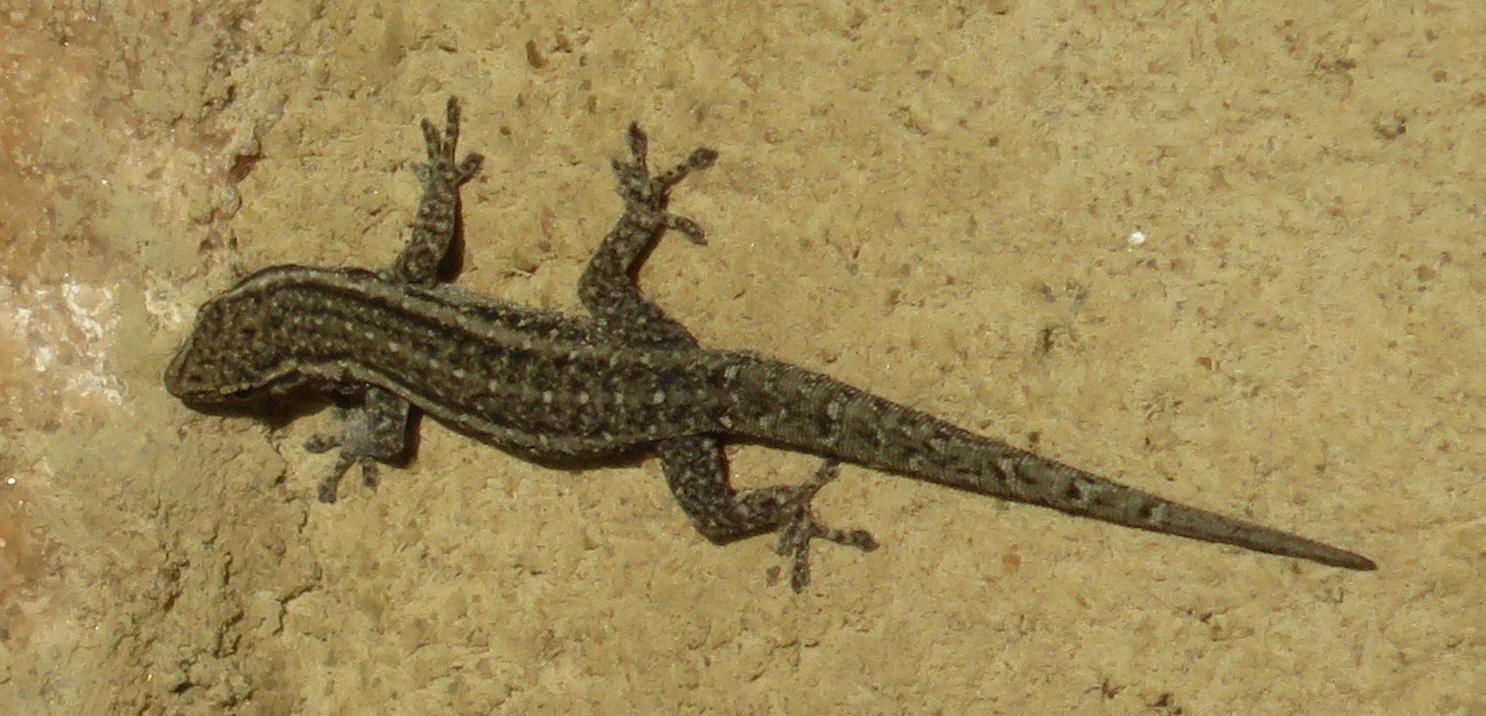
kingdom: Animalia
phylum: Chordata
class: Squamata
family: Gekkonidae
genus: Lygodactylus
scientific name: Lygodactylus capensis
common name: Cape dwarf gecko
